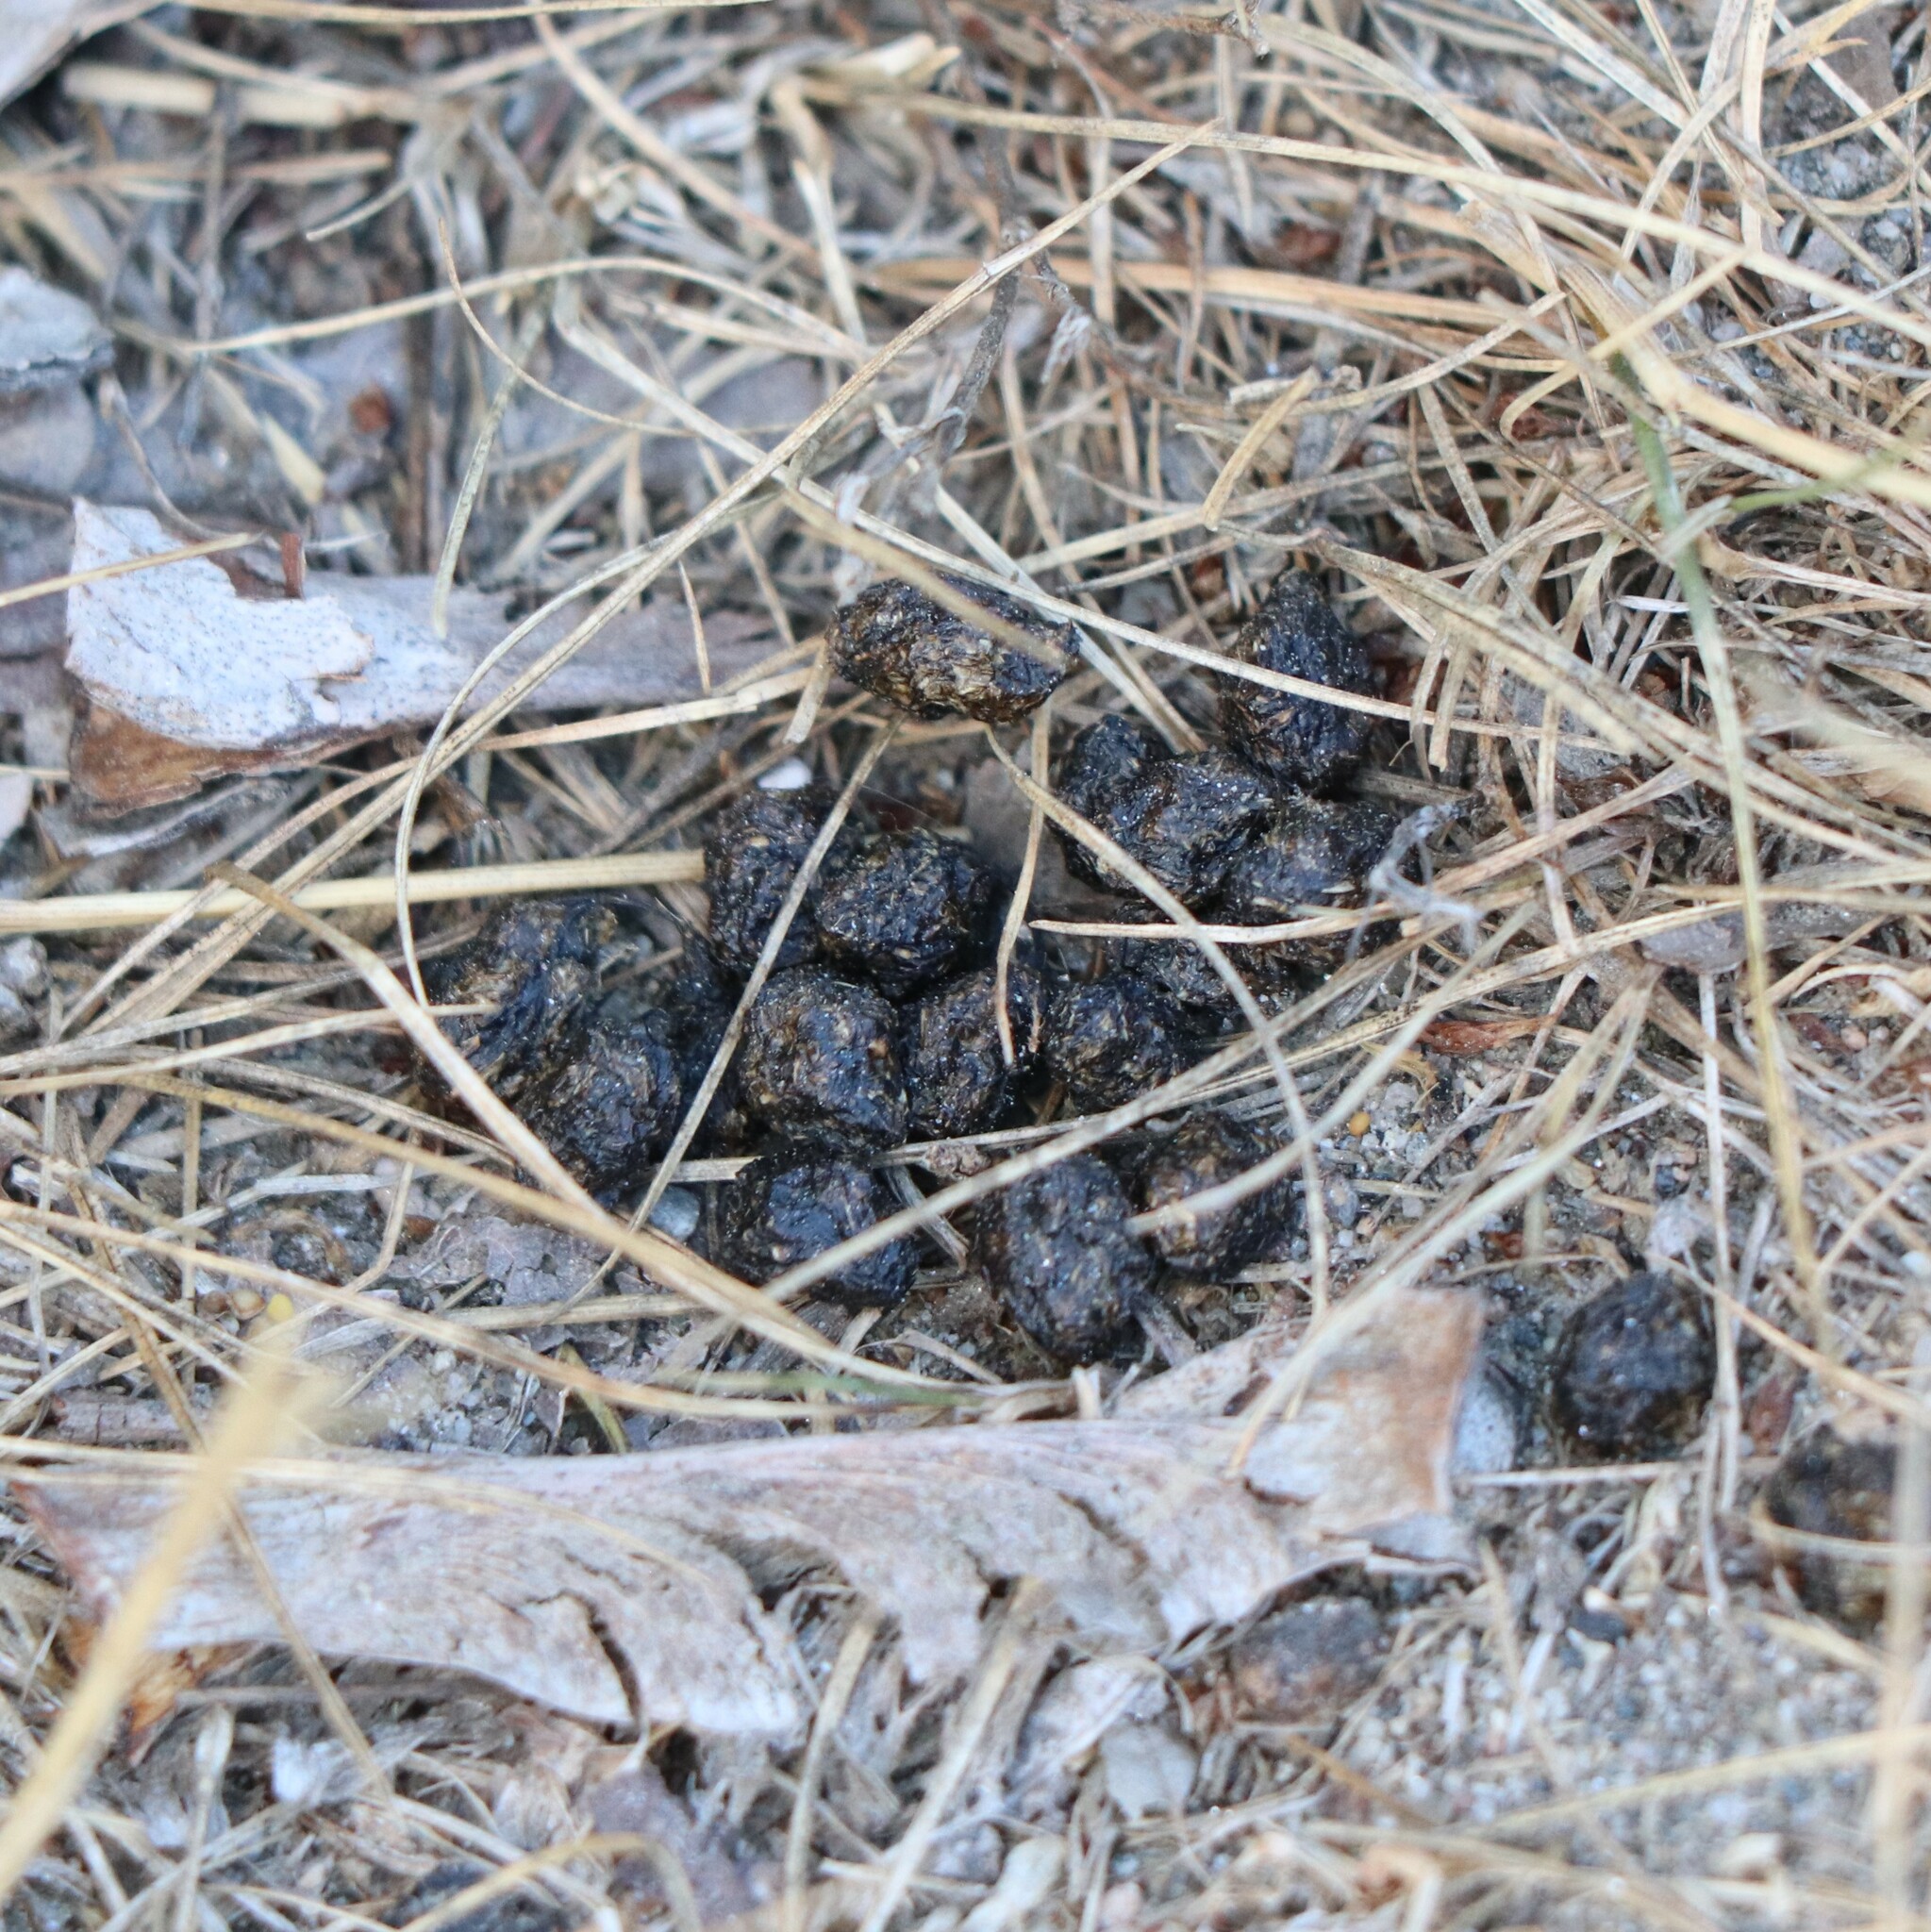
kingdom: Animalia
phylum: Chordata
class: Mammalia
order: Lagomorpha
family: Leporidae
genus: Sylvilagus
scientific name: Sylvilagus floridanus
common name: Eastern cottontail
